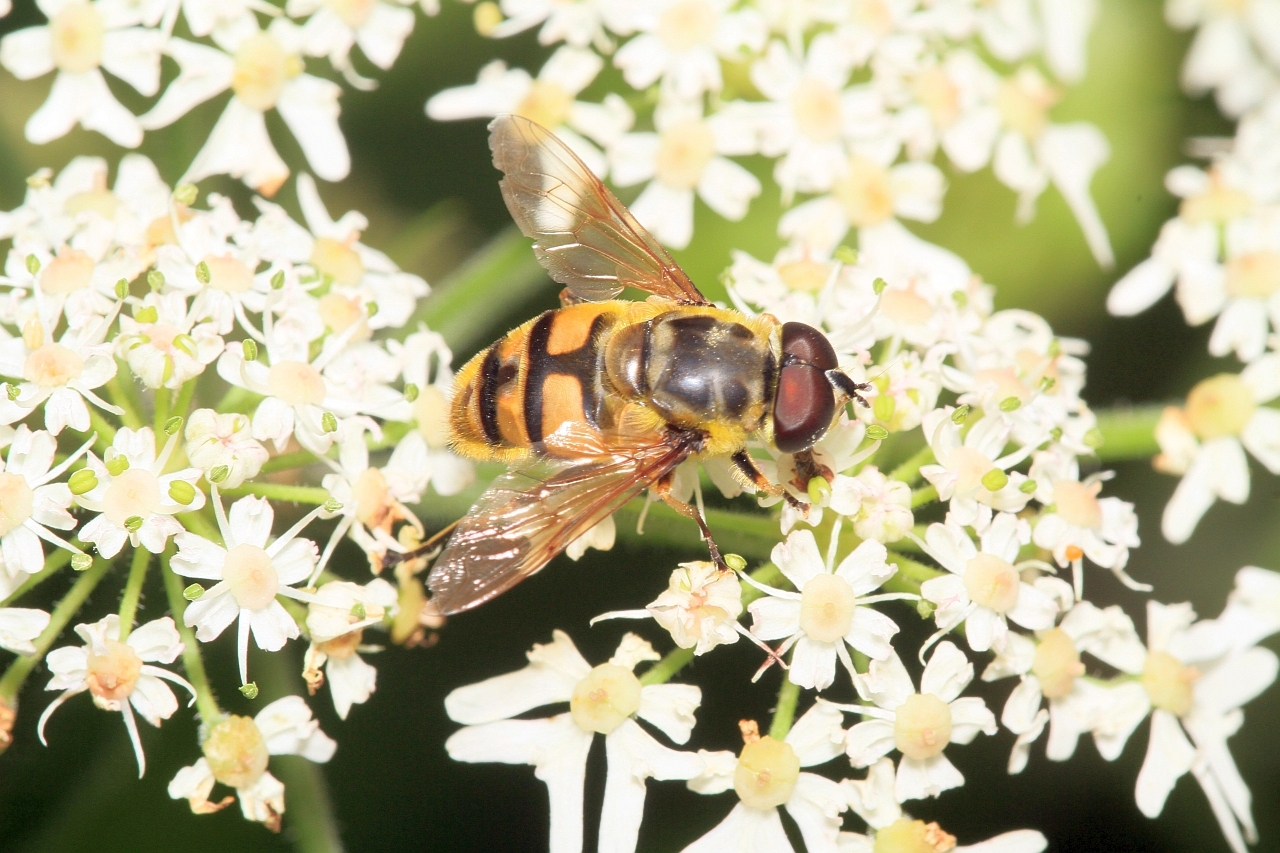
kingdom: Animalia
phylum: Arthropoda
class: Insecta
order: Diptera
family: Syrphidae
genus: Myathropa
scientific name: Myathropa florea
